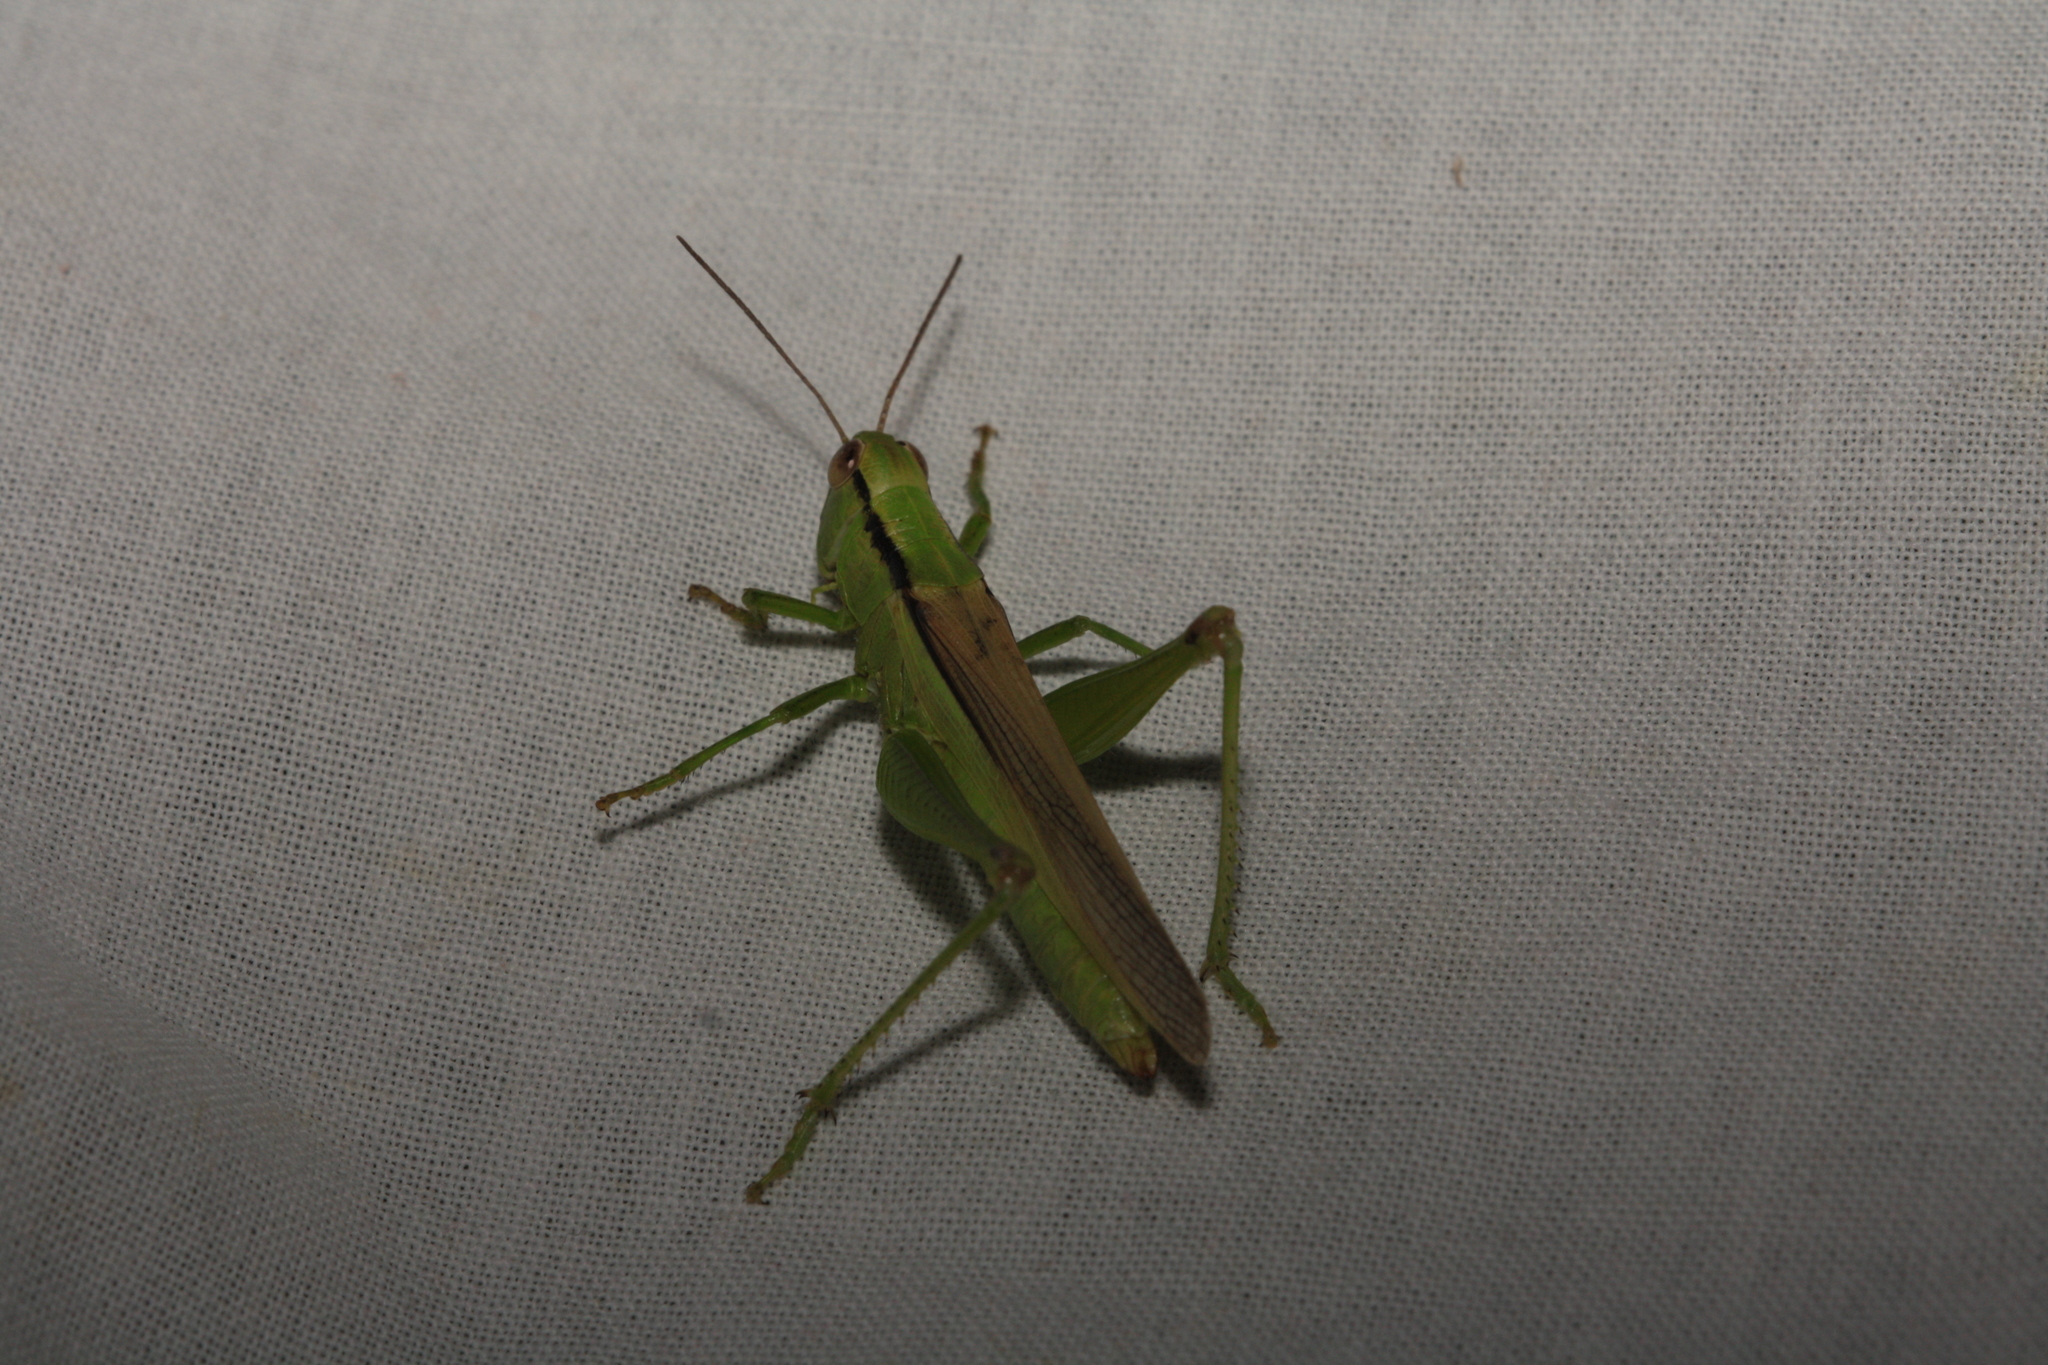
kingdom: Animalia
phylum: Arthropoda
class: Insecta
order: Orthoptera
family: Acrididae
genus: Mecostethus
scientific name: Mecostethus parapleurus
